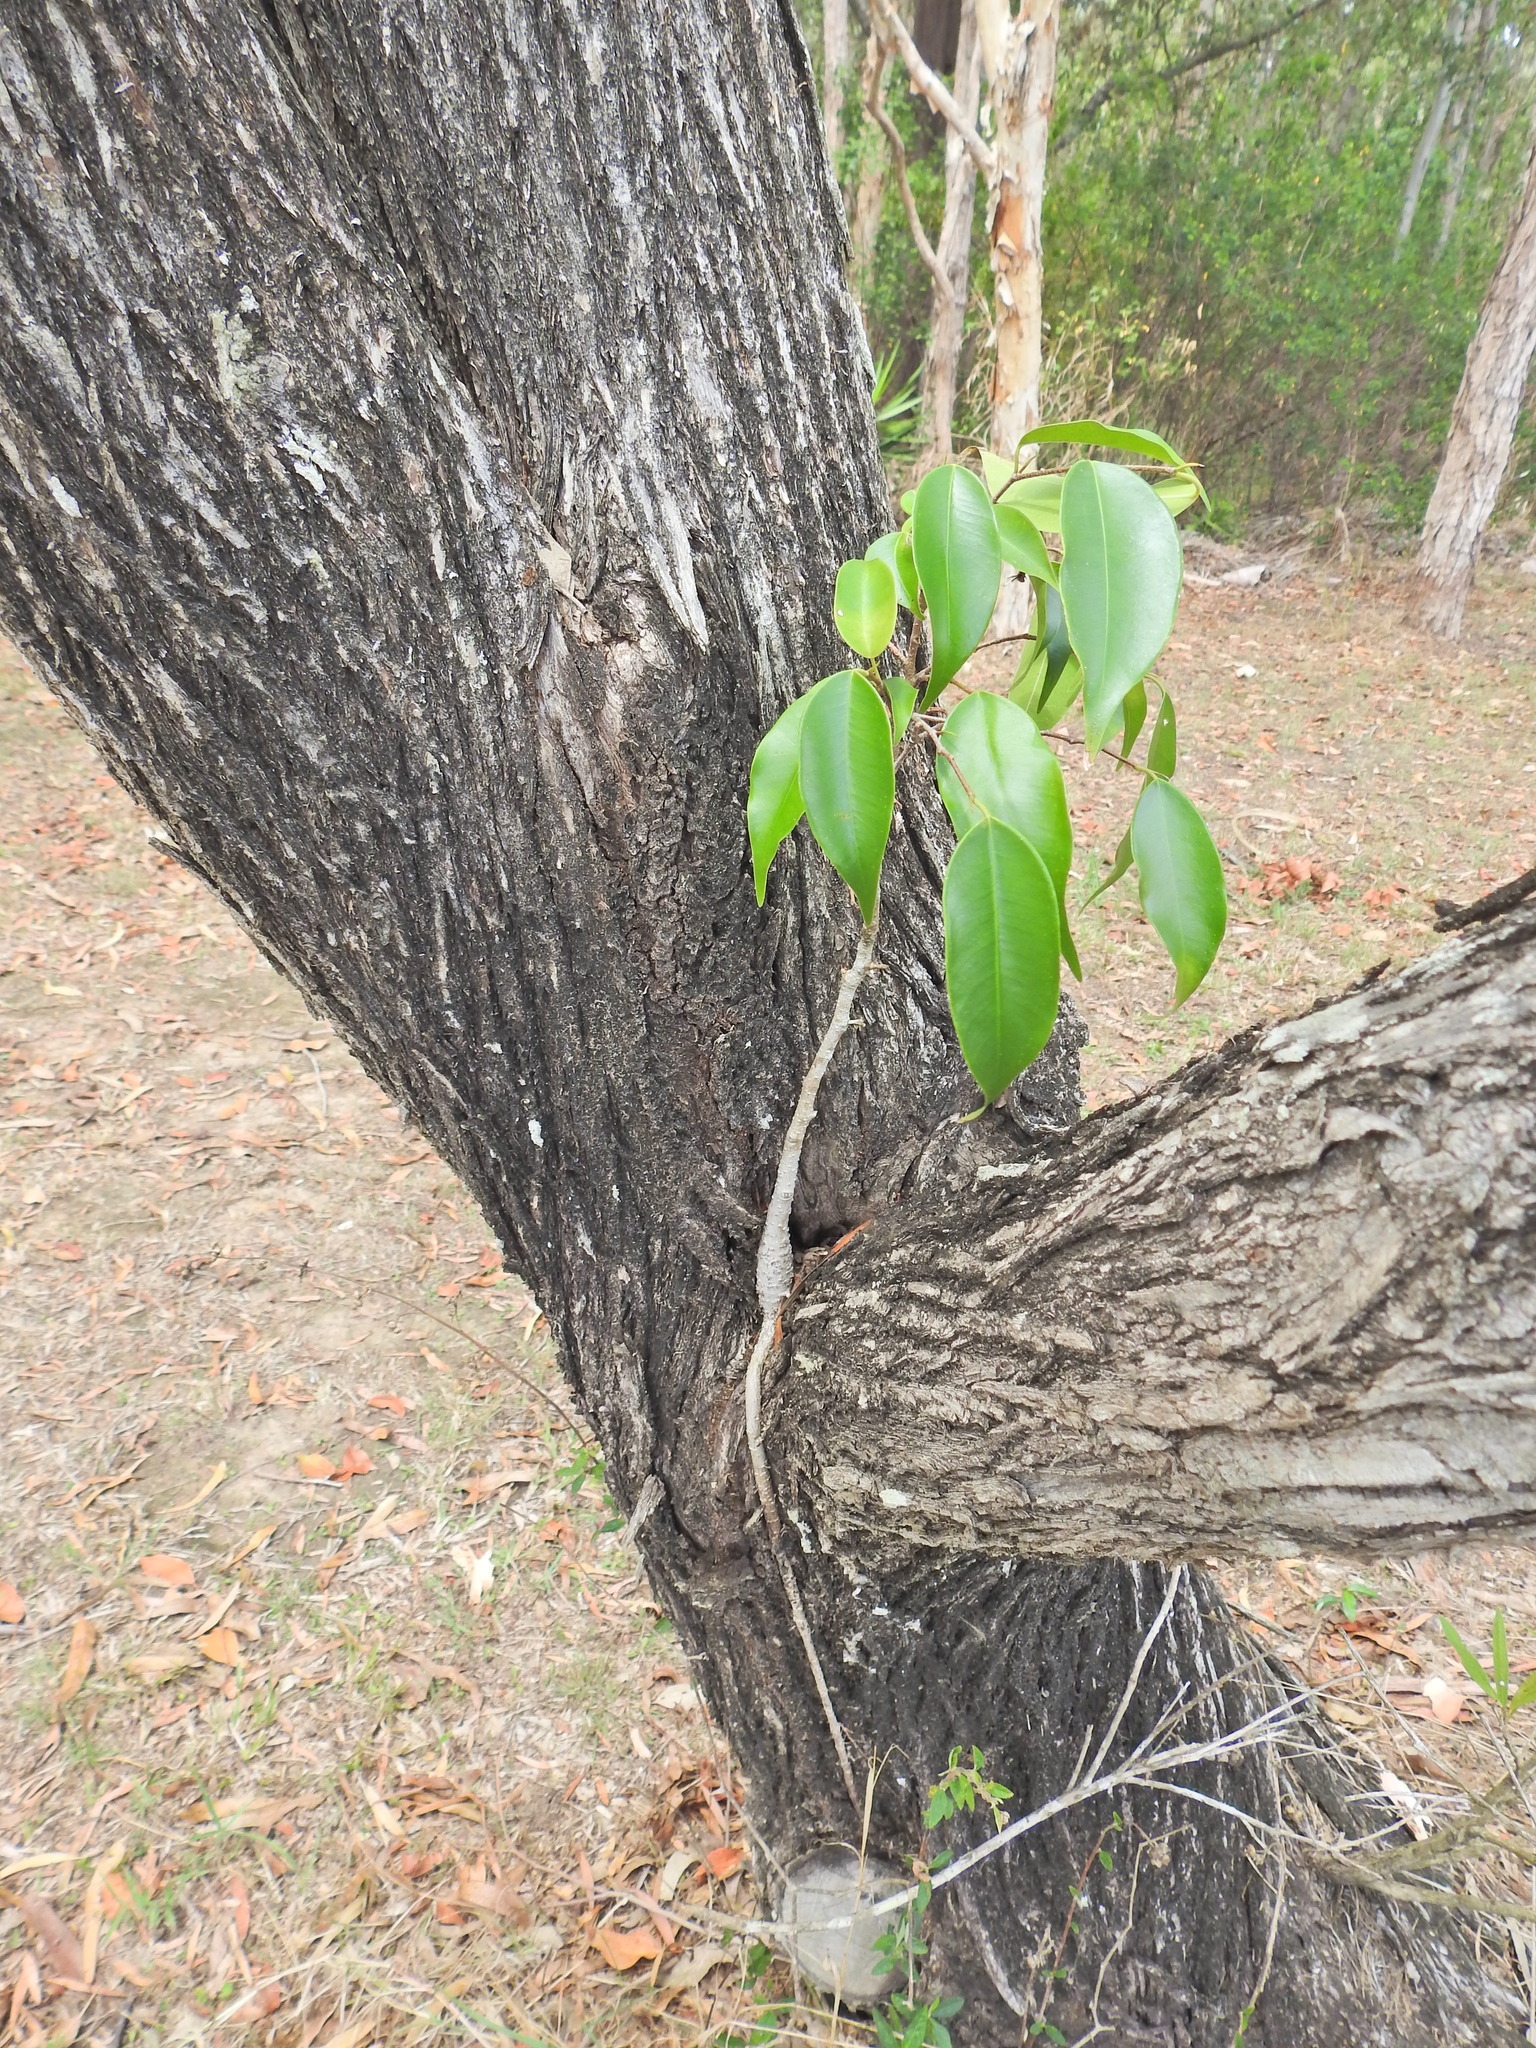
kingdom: Plantae
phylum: Tracheophyta
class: Magnoliopsida
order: Rosales
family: Moraceae
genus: Ficus
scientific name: Ficus benjamina
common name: Weeping fig
